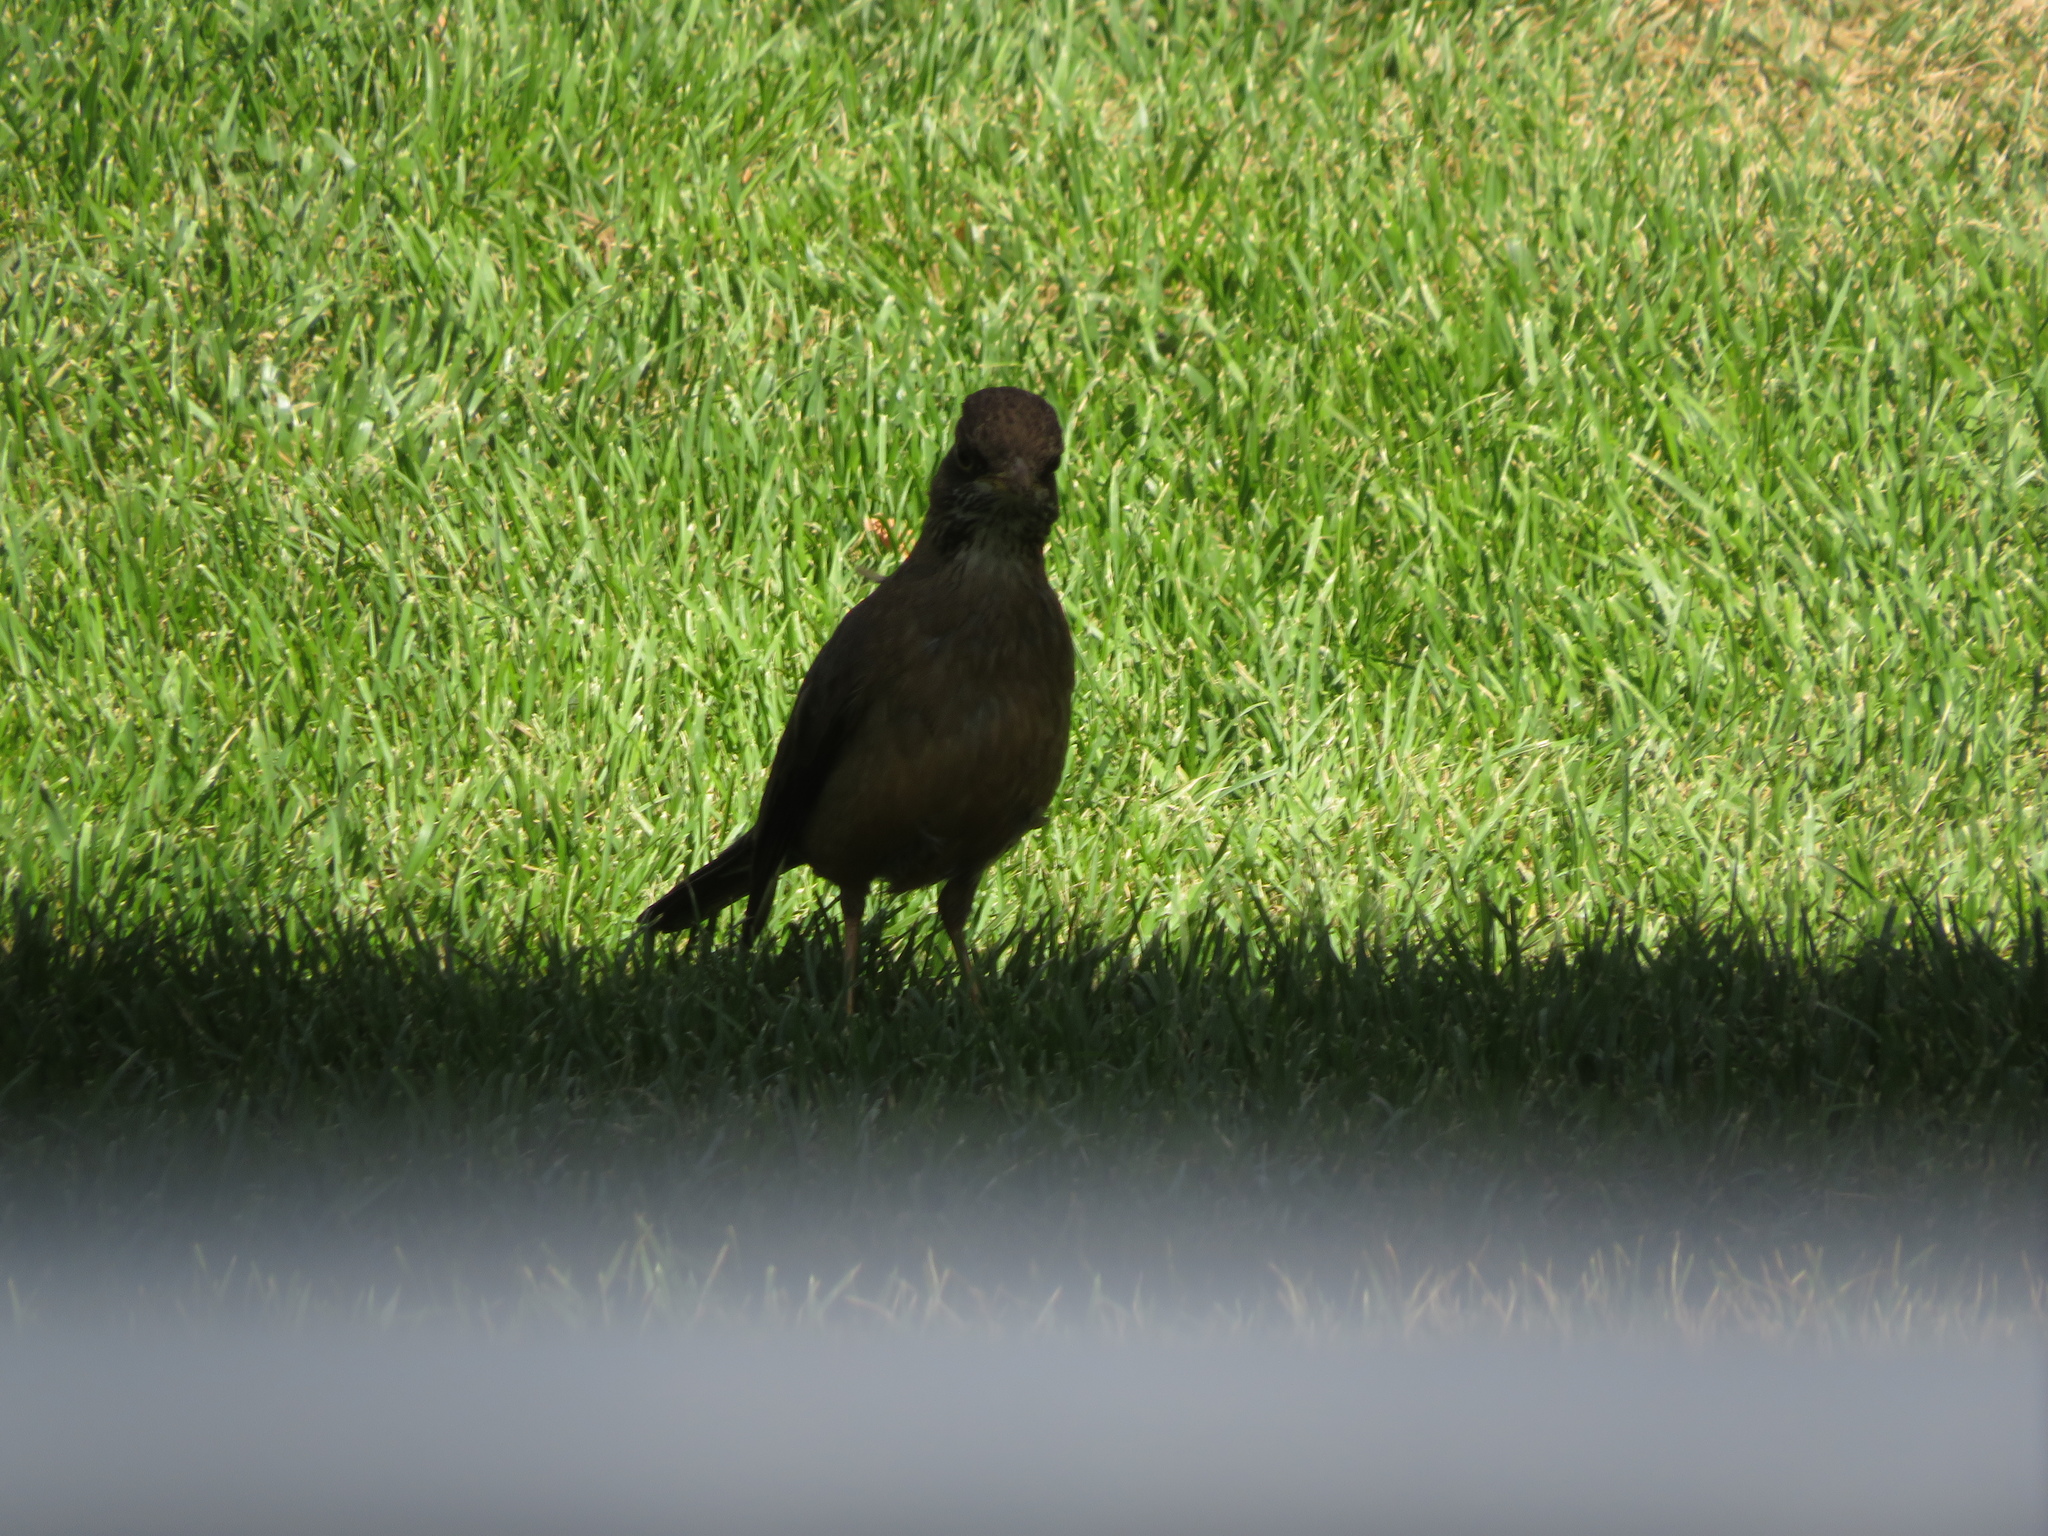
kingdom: Animalia
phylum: Chordata
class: Aves
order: Passeriformes
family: Turdidae
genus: Turdus
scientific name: Turdus falcklandii
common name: Austral thrush
